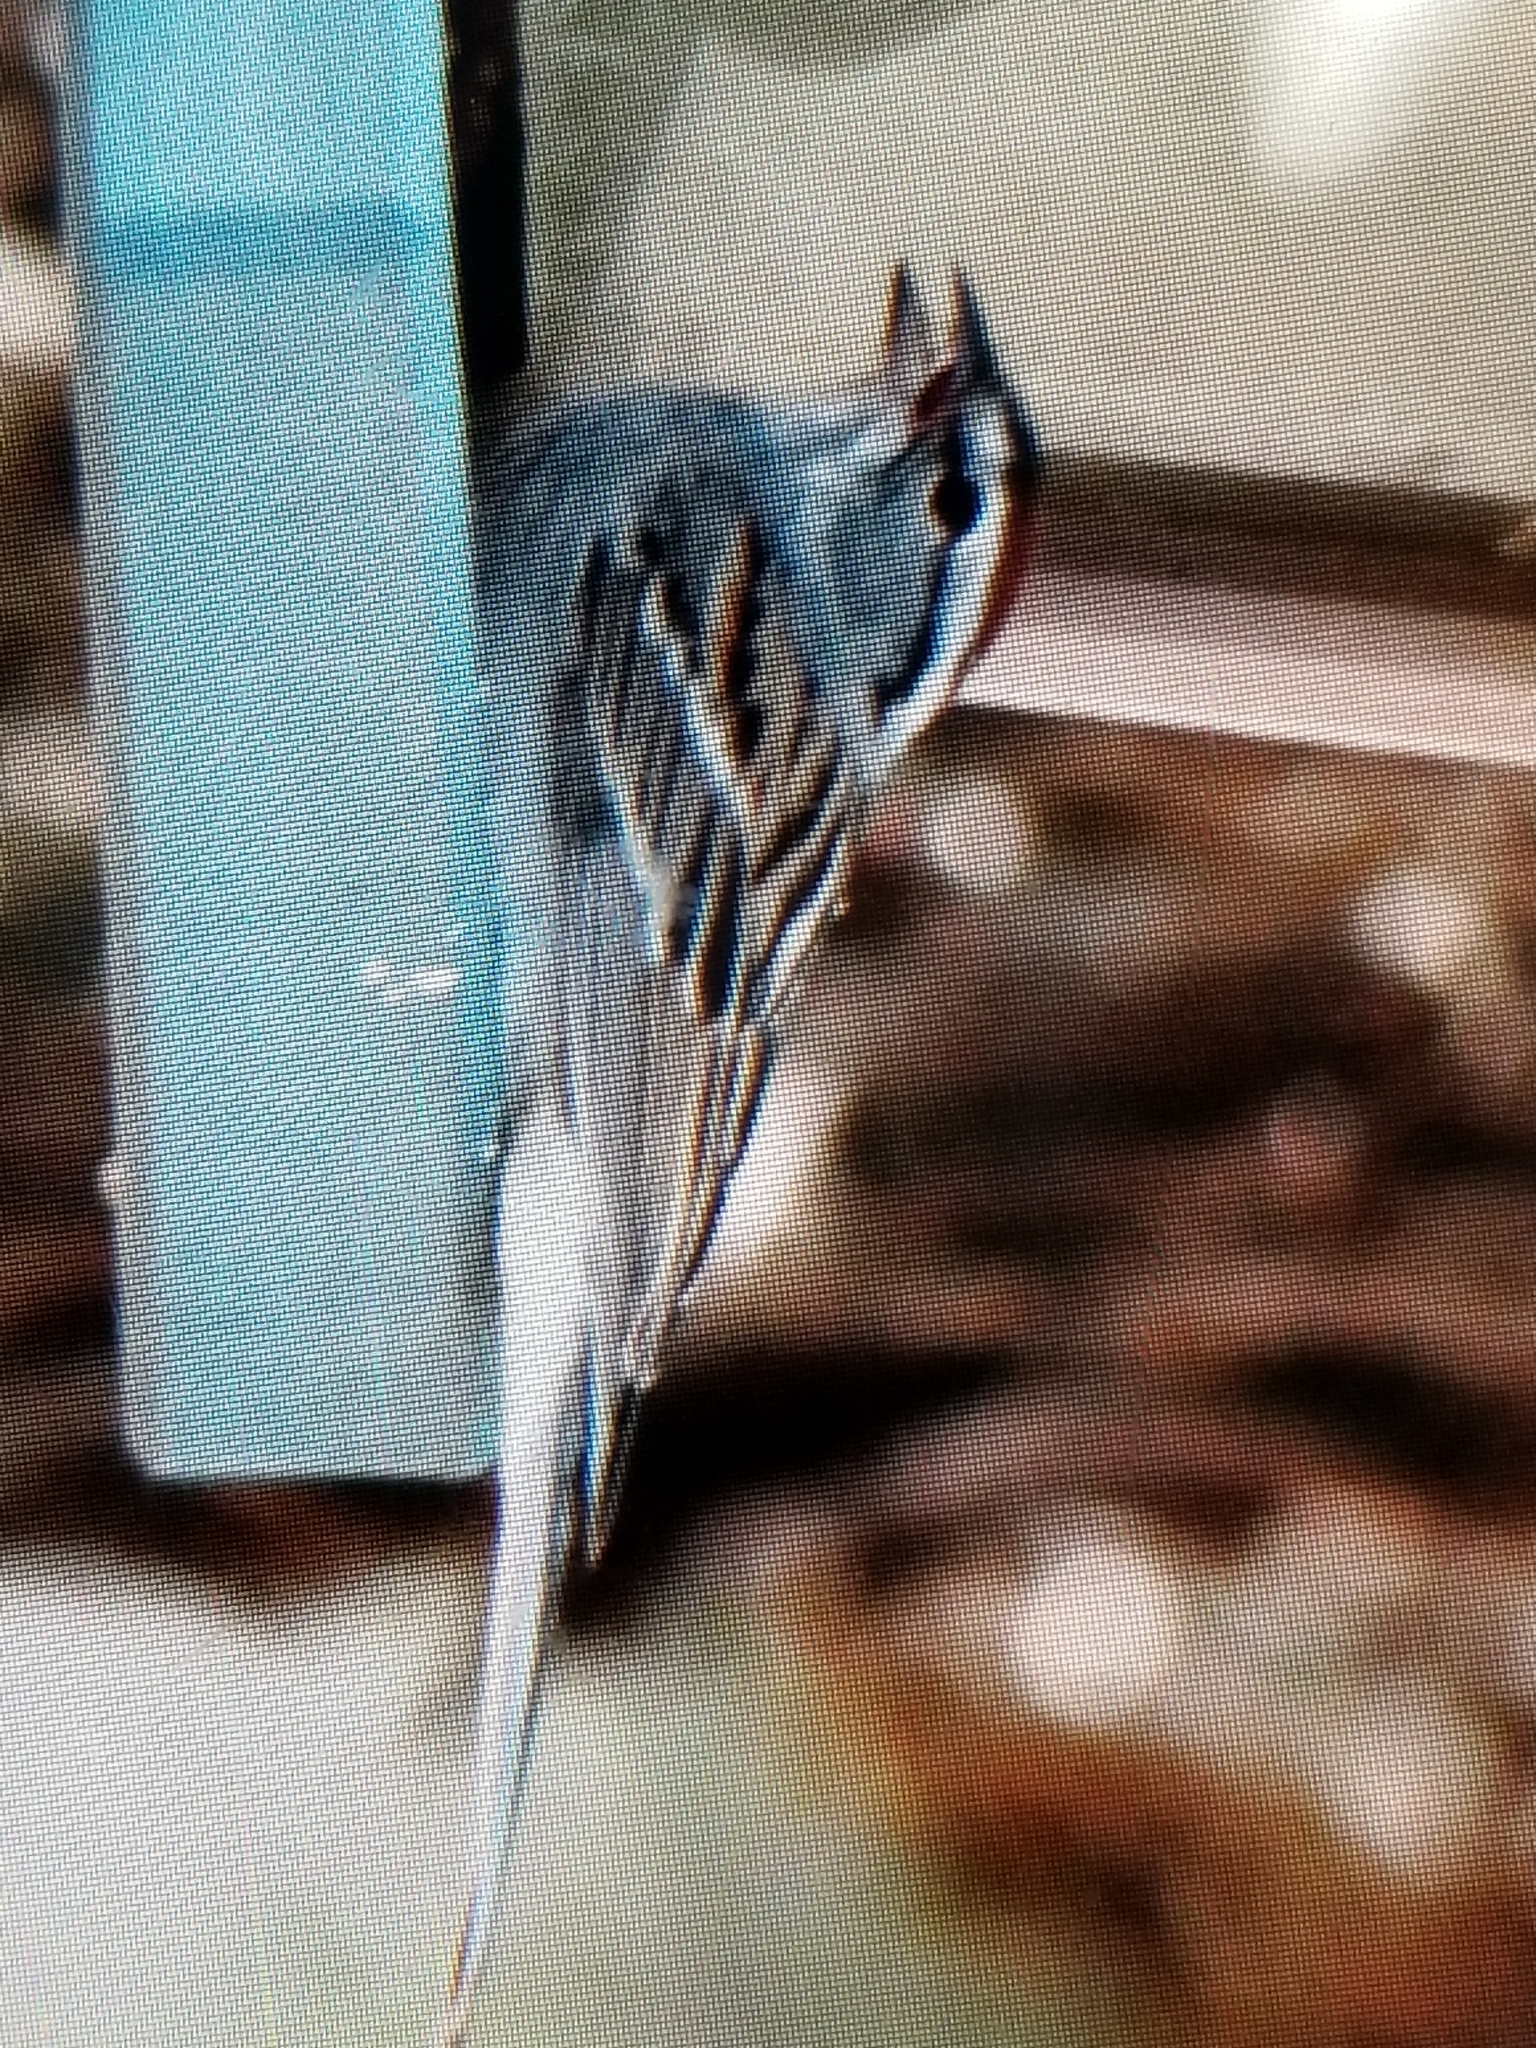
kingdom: Animalia
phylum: Chordata
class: Aves
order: Passeriformes
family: Passerellidae
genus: Spizella
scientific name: Spizella passerina
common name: Chipping sparrow
